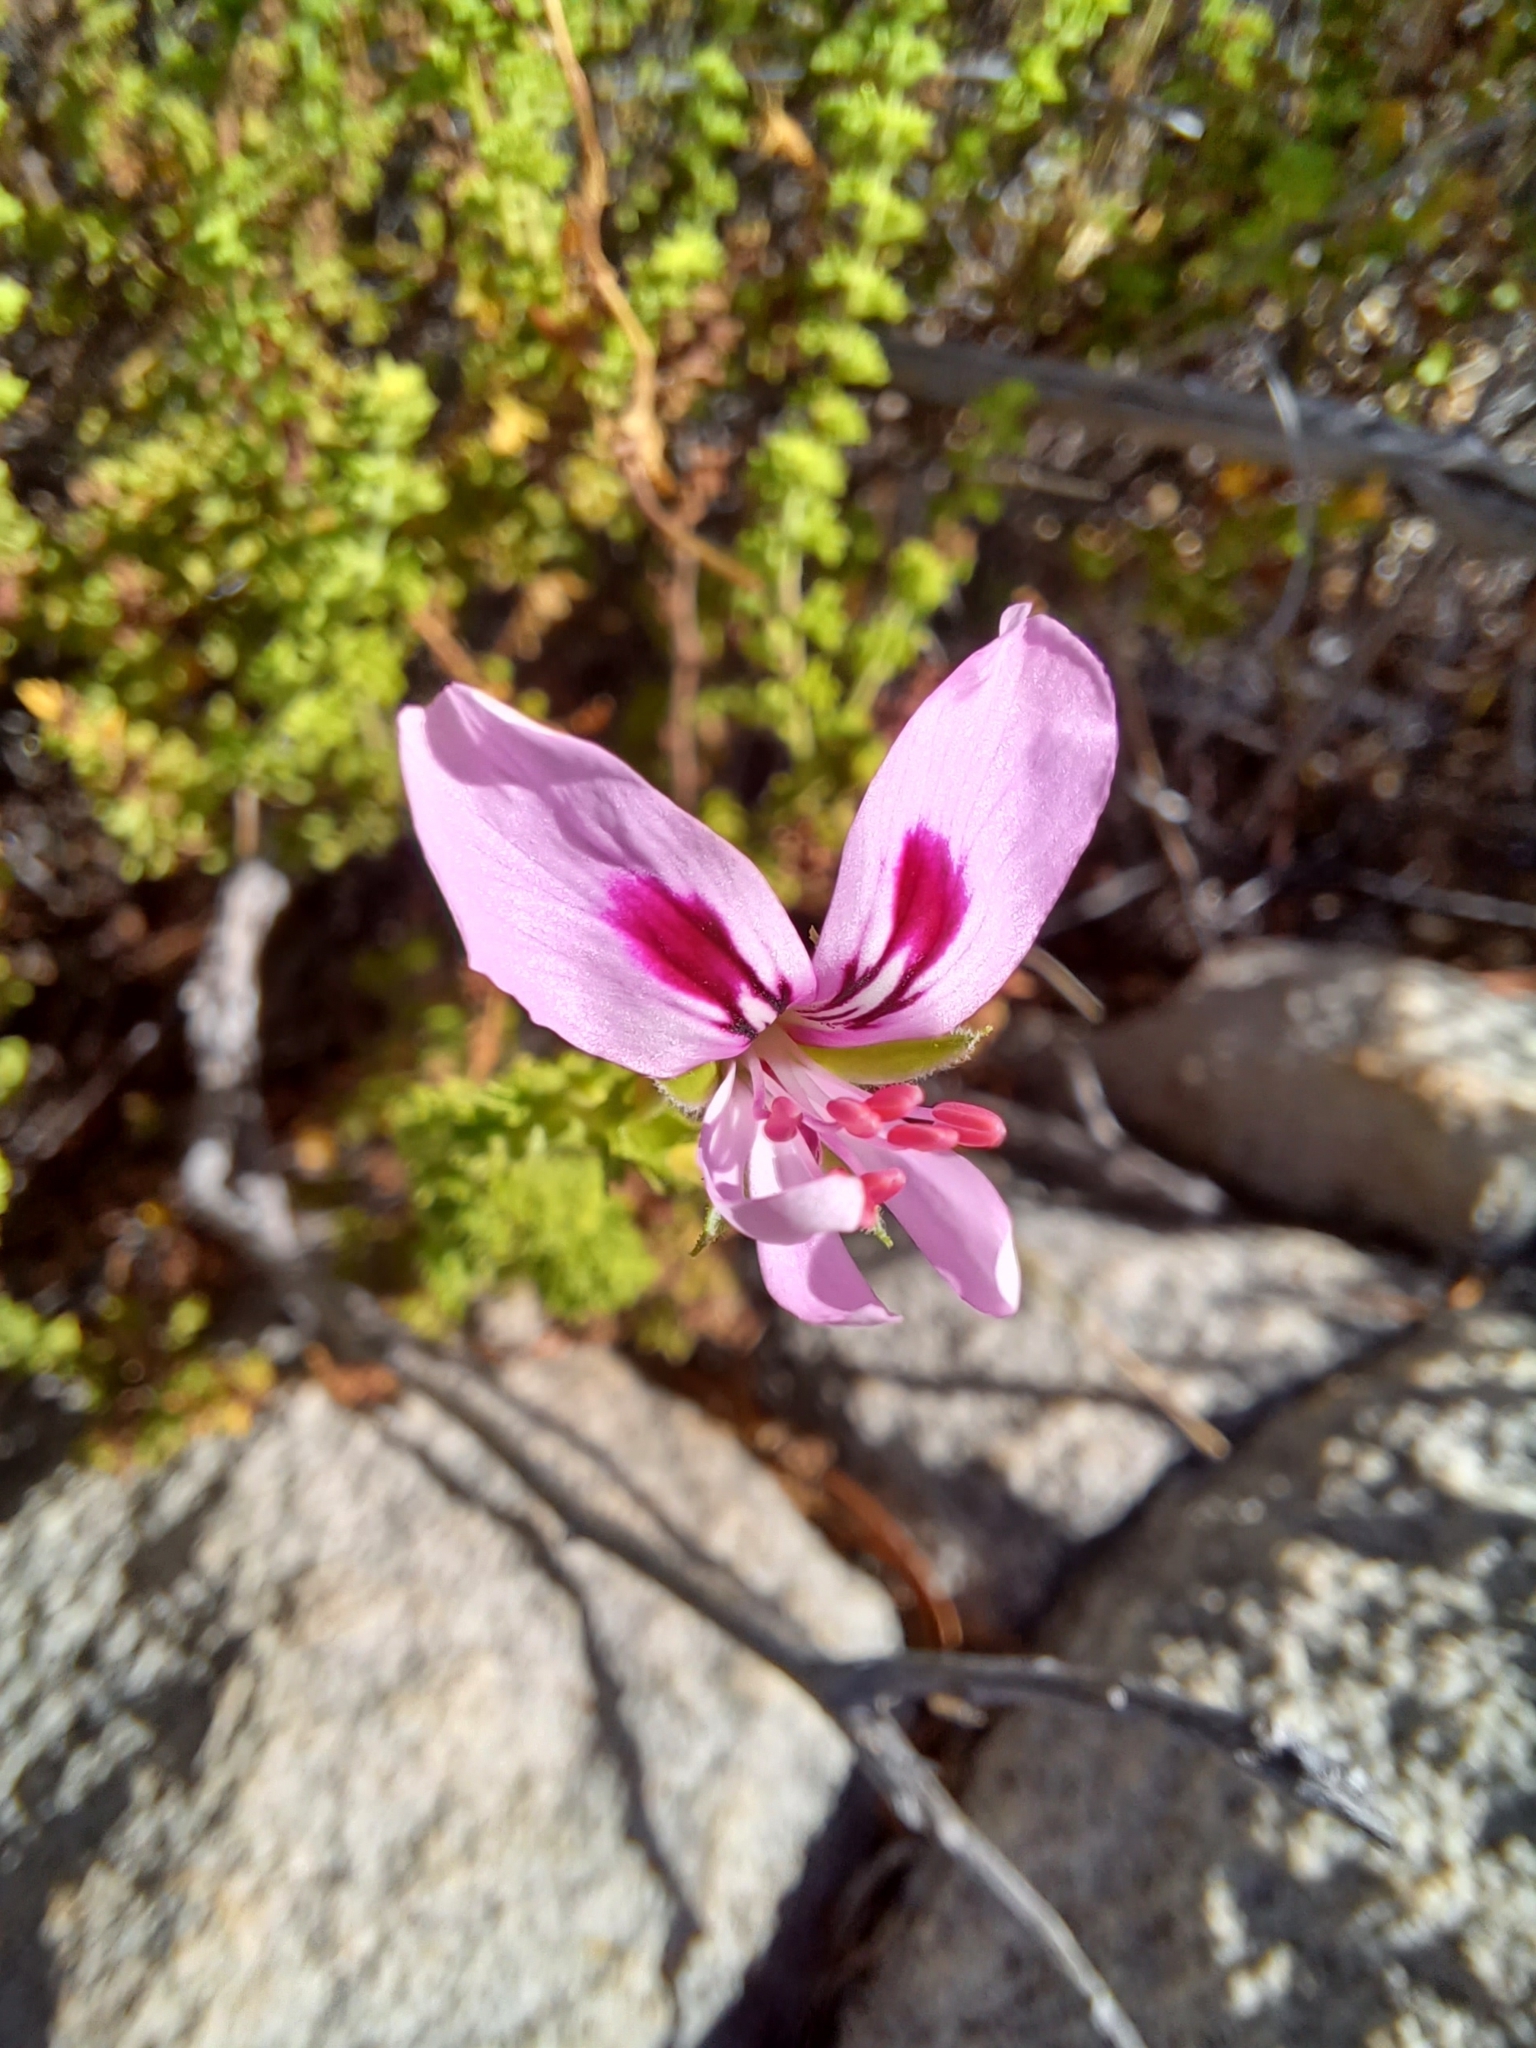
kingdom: Plantae
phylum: Tracheophyta
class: Magnoliopsida
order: Geraniales
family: Geraniaceae
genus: Pelargonium
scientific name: Pelargonium crispum
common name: Crisped-leaf pelargonium
